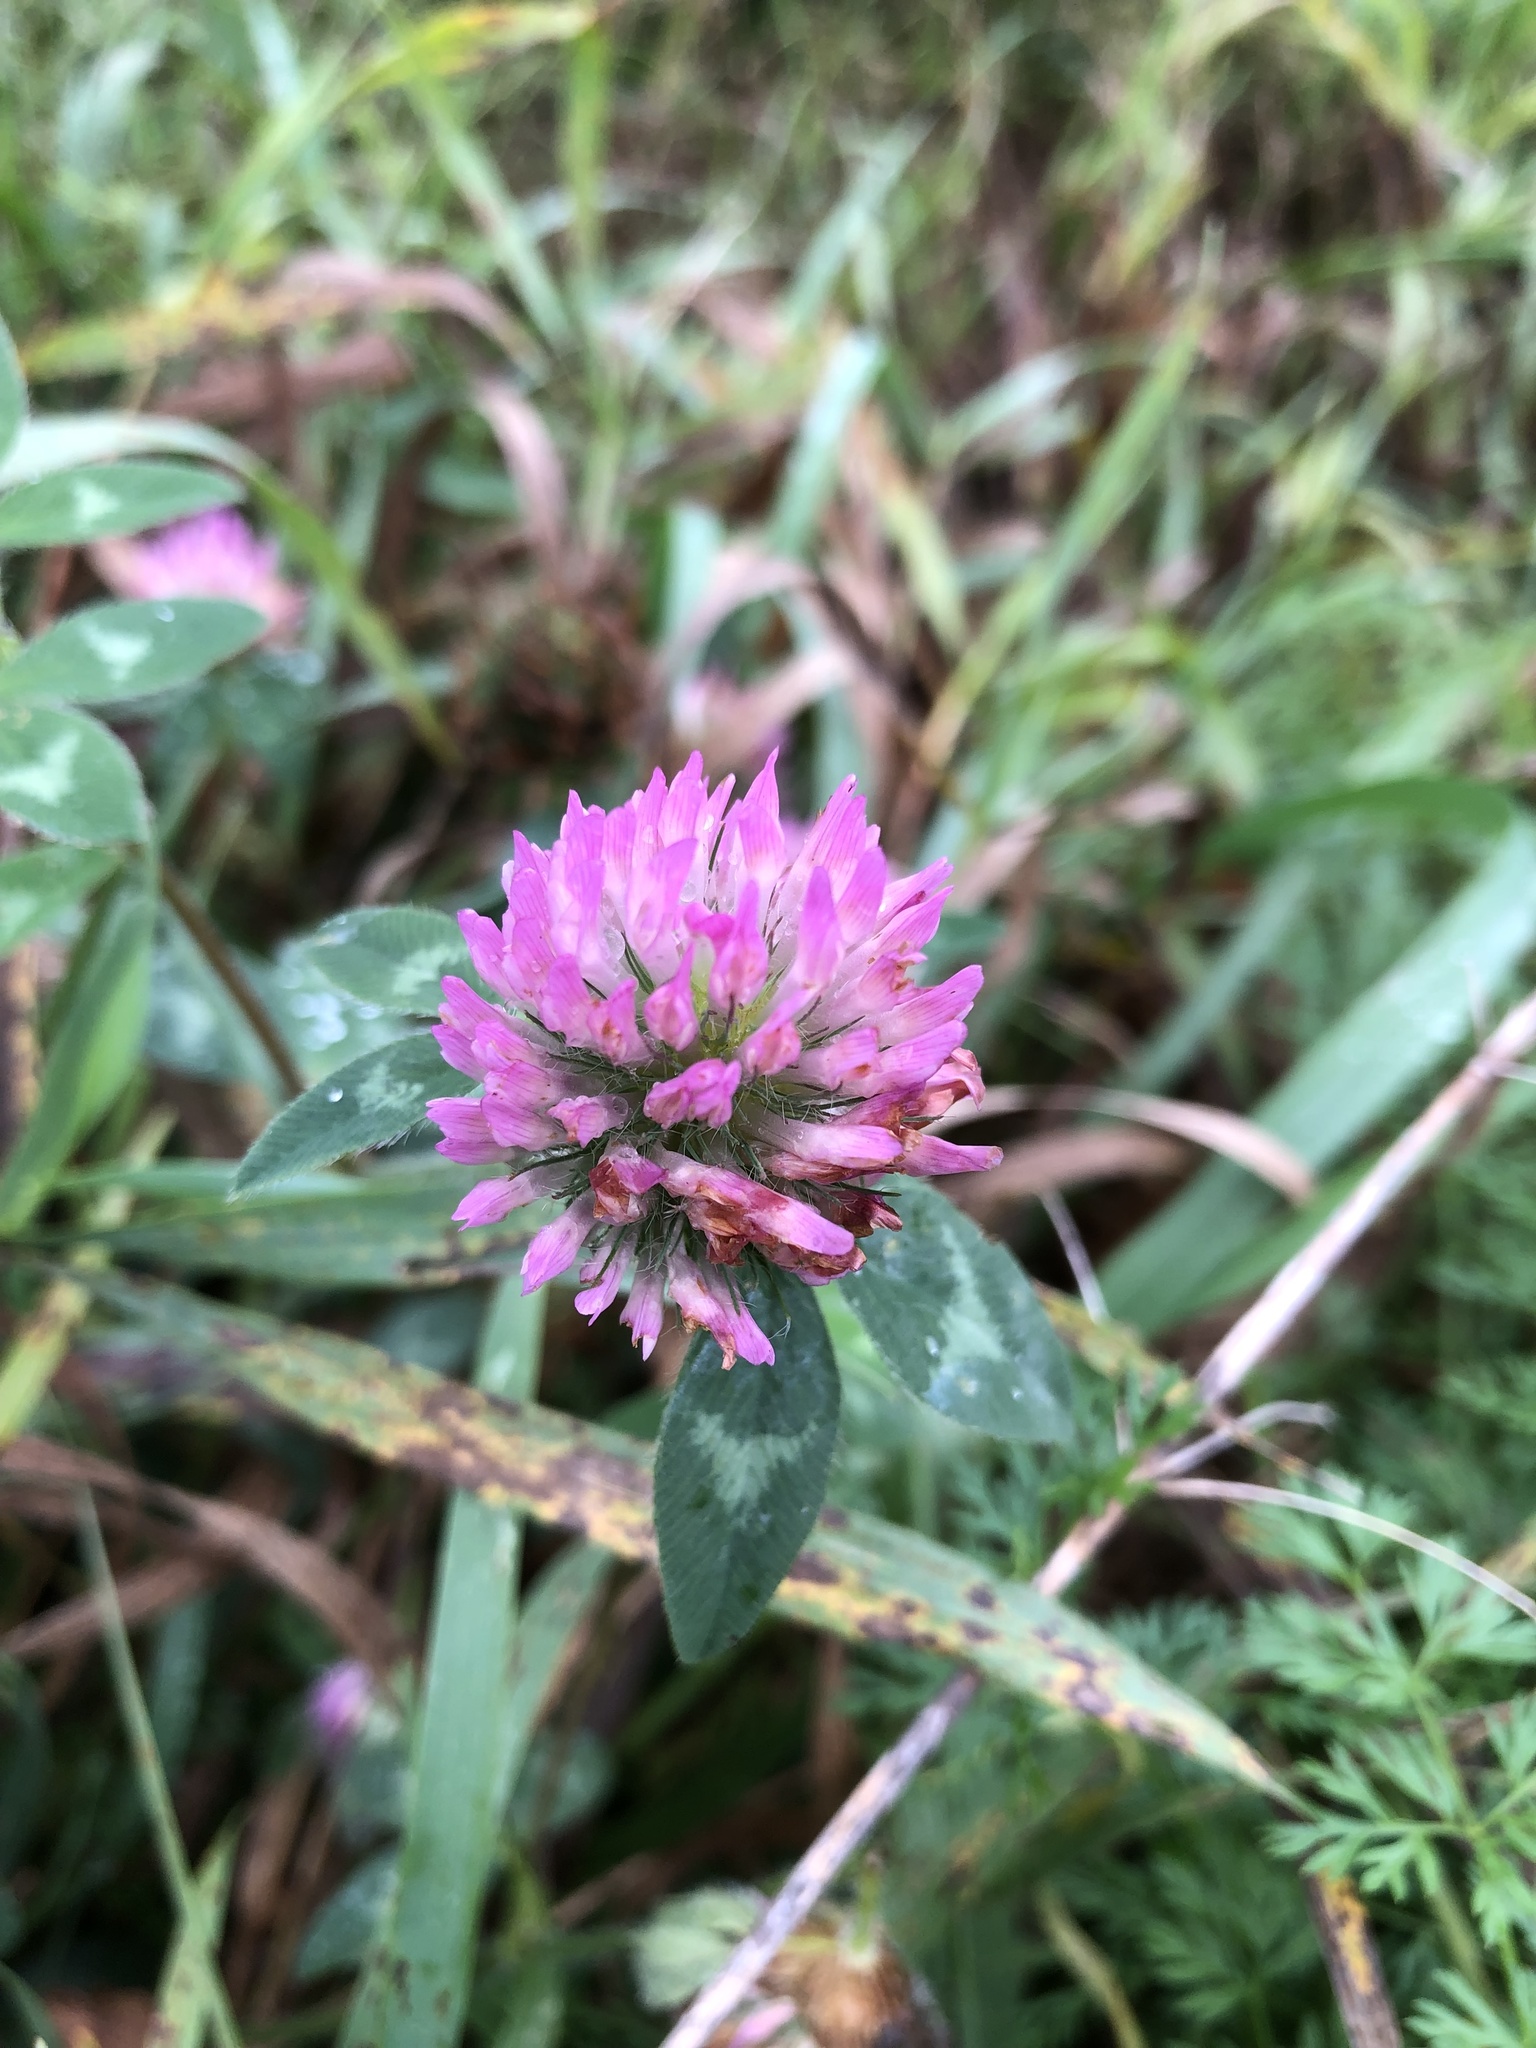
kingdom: Plantae
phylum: Tracheophyta
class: Magnoliopsida
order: Fabales
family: Fabaceae
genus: Trifolium
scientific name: Trifolium pratense
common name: Red clover
